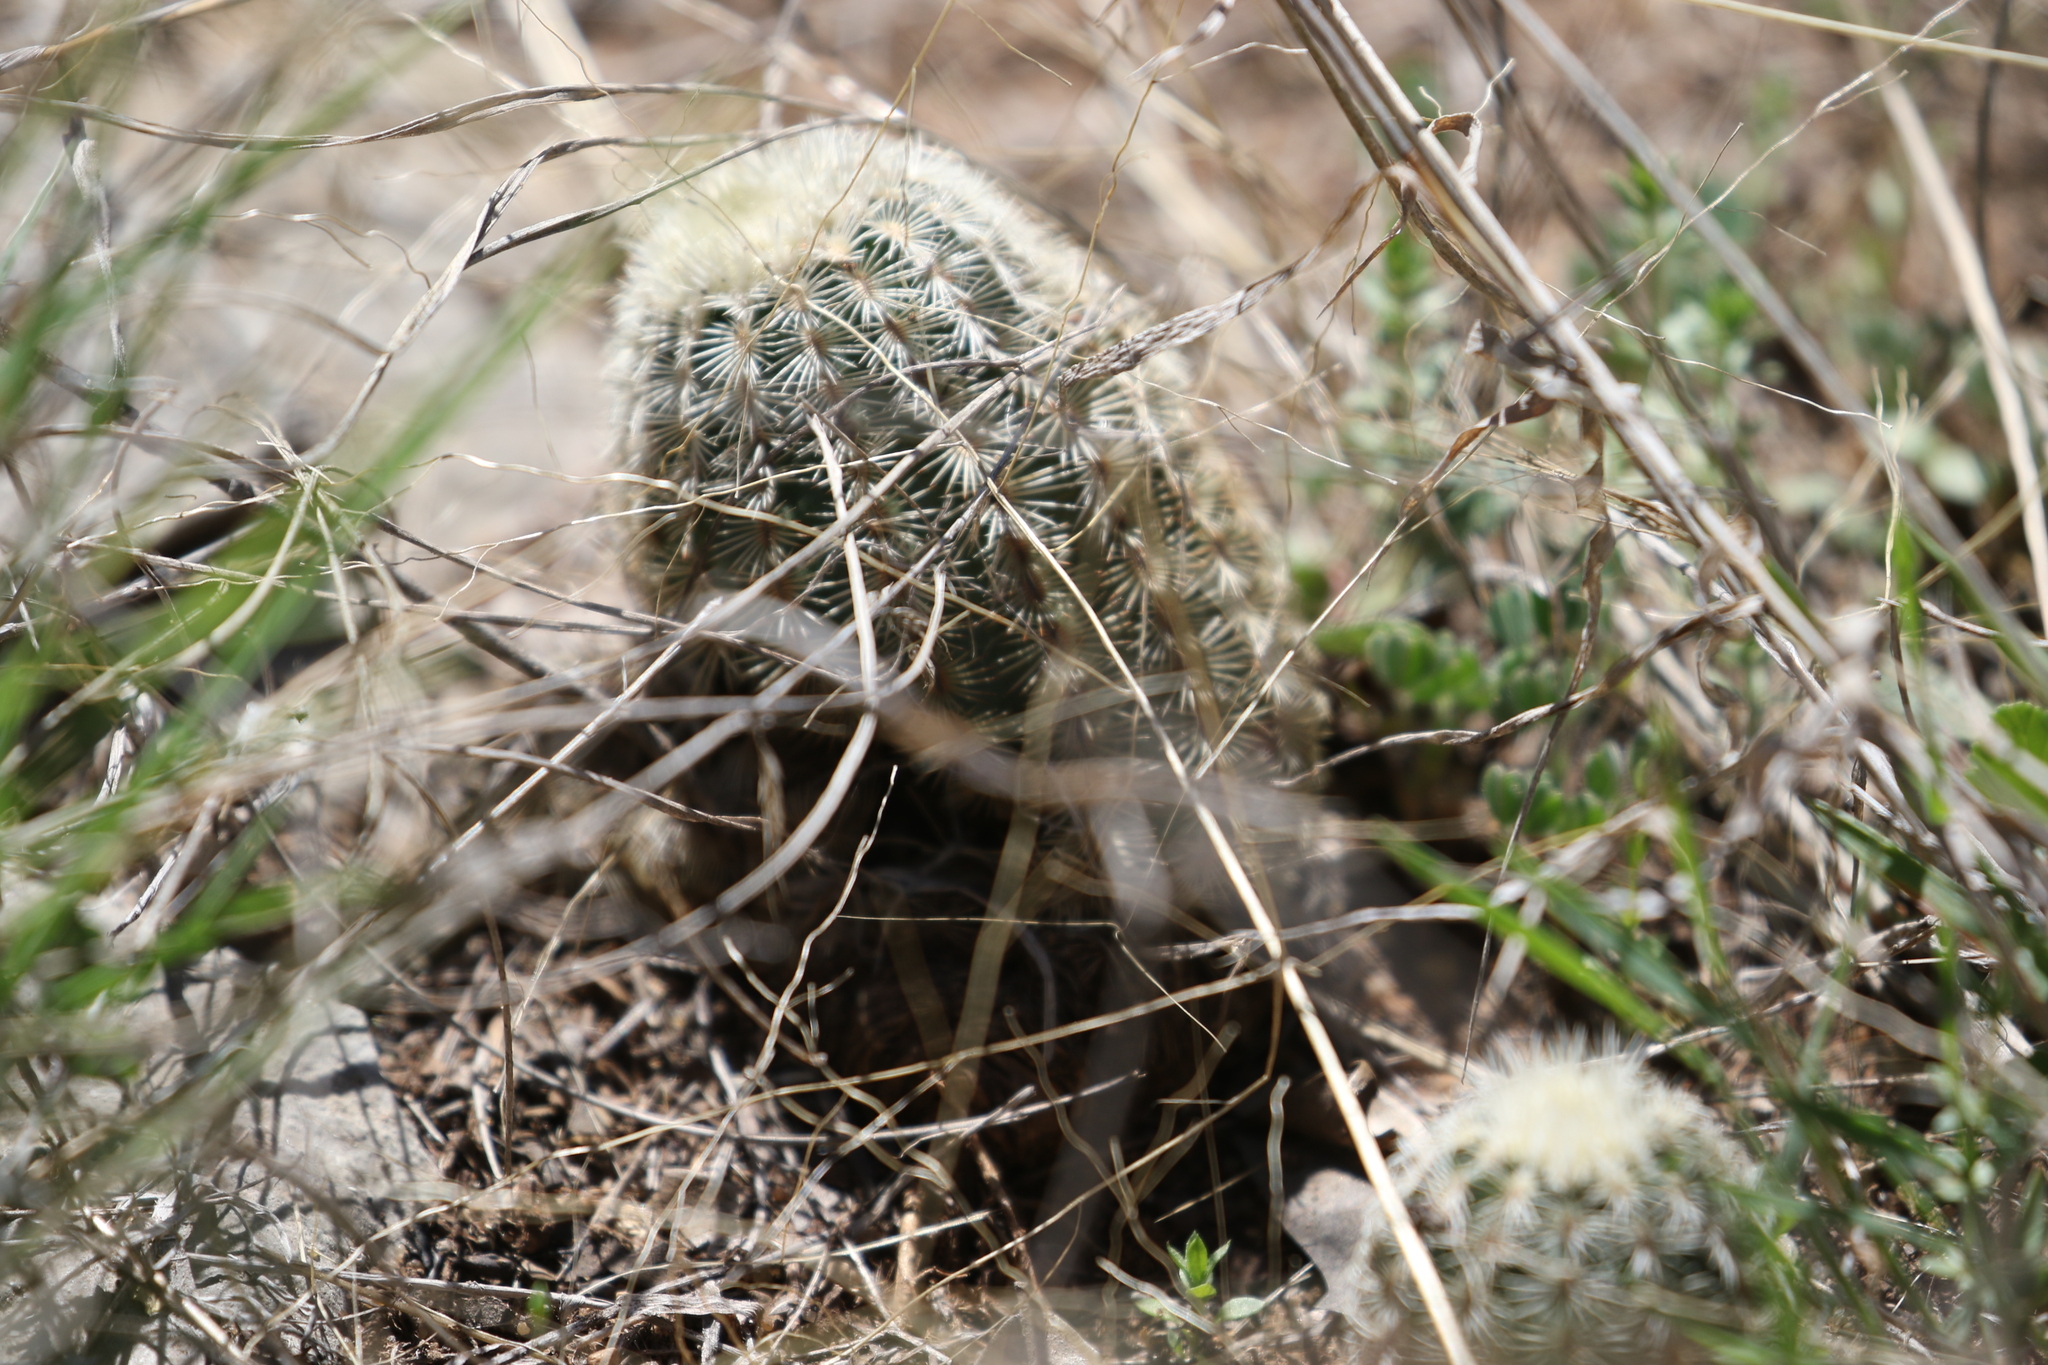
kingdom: Plantae
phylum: Tracheophyta
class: Magnoliopsida
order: Caryophyllales
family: Cactaceae
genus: Echinocereus
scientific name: Echinocereus reichenbachii
